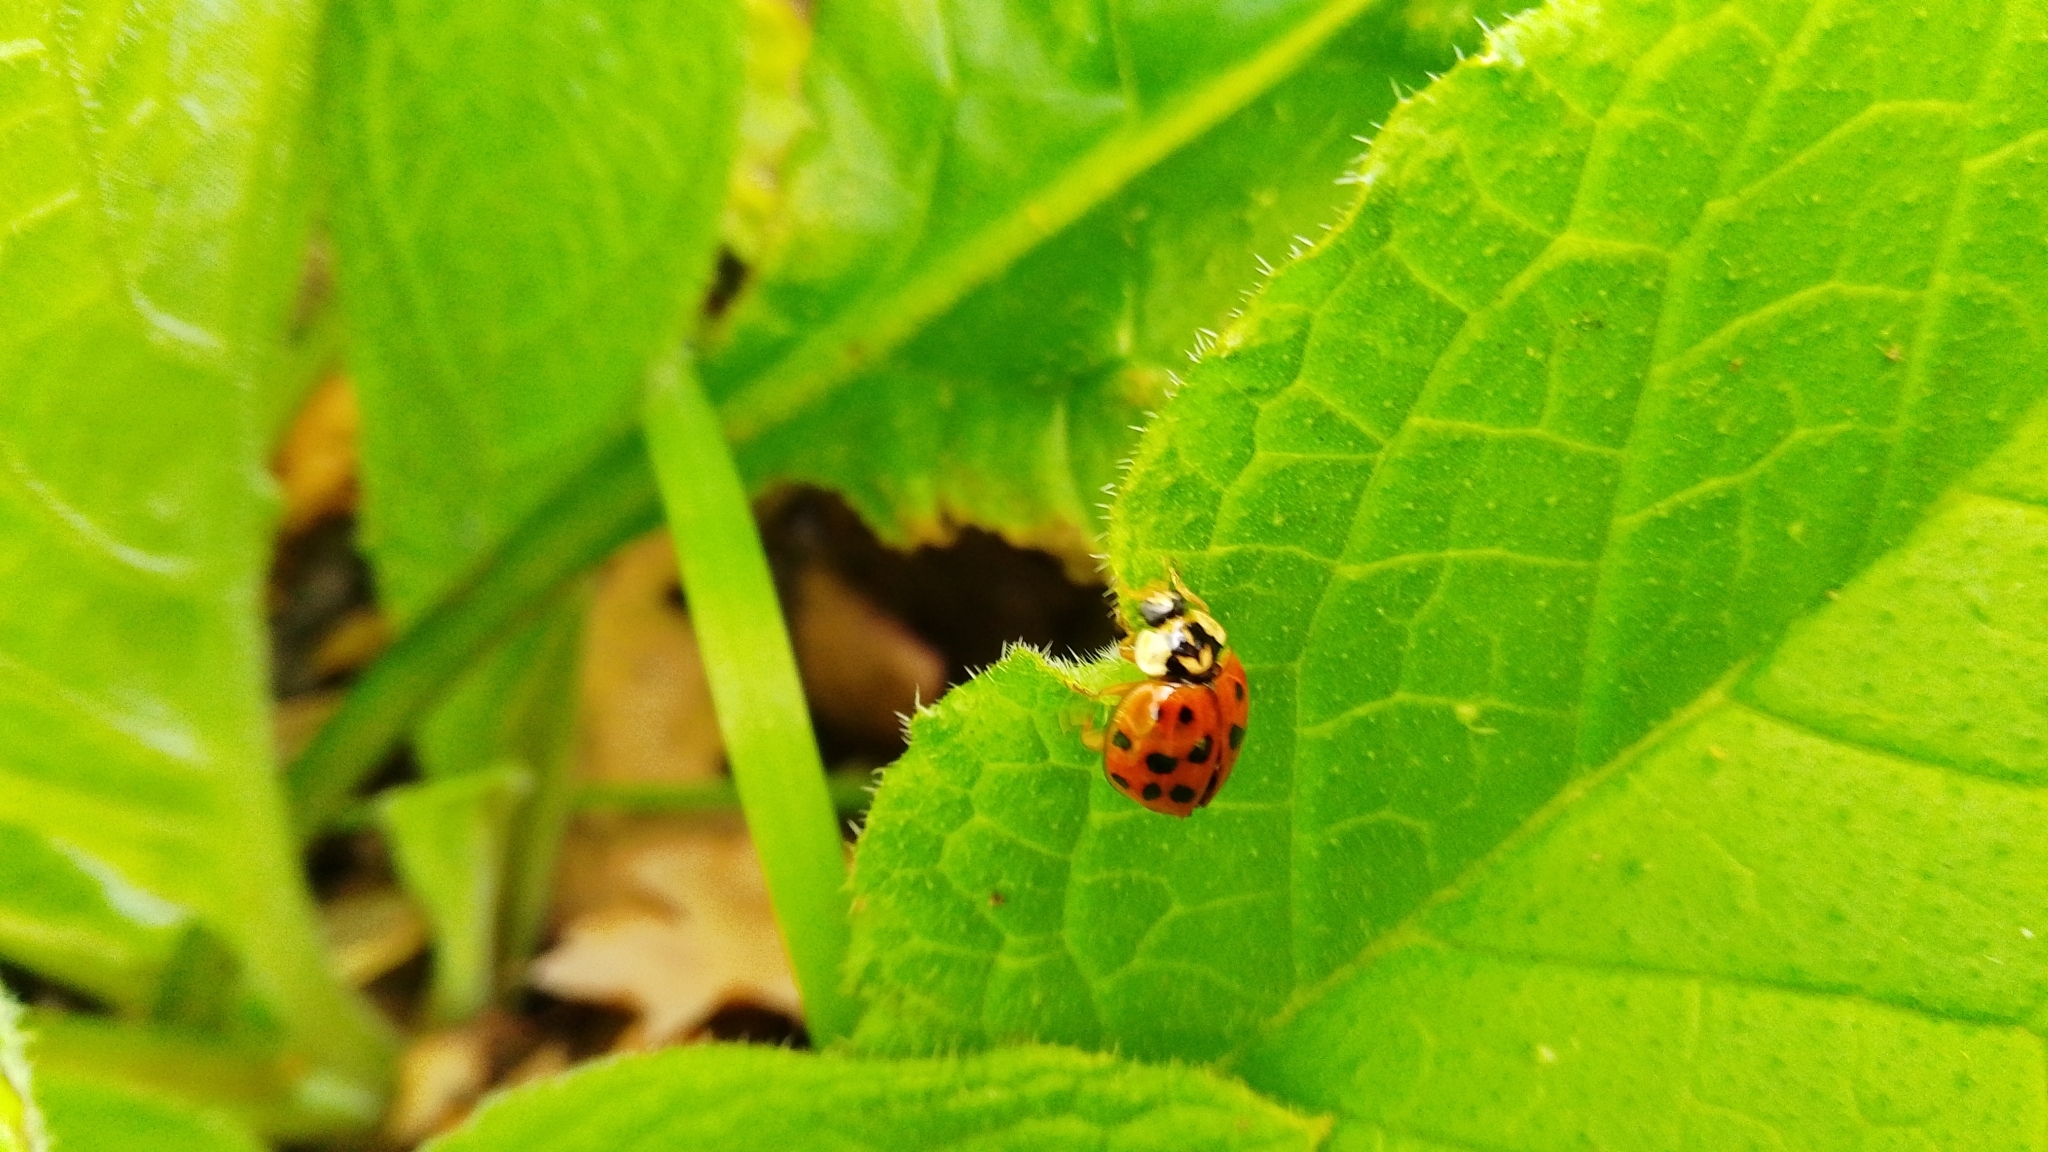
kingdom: Animalia
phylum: Arthropoda
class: Insecta
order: Coleoptera
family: Coccinellidae
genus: Harmonia
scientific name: Harmonia axyridis
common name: Harlequin ladybird
